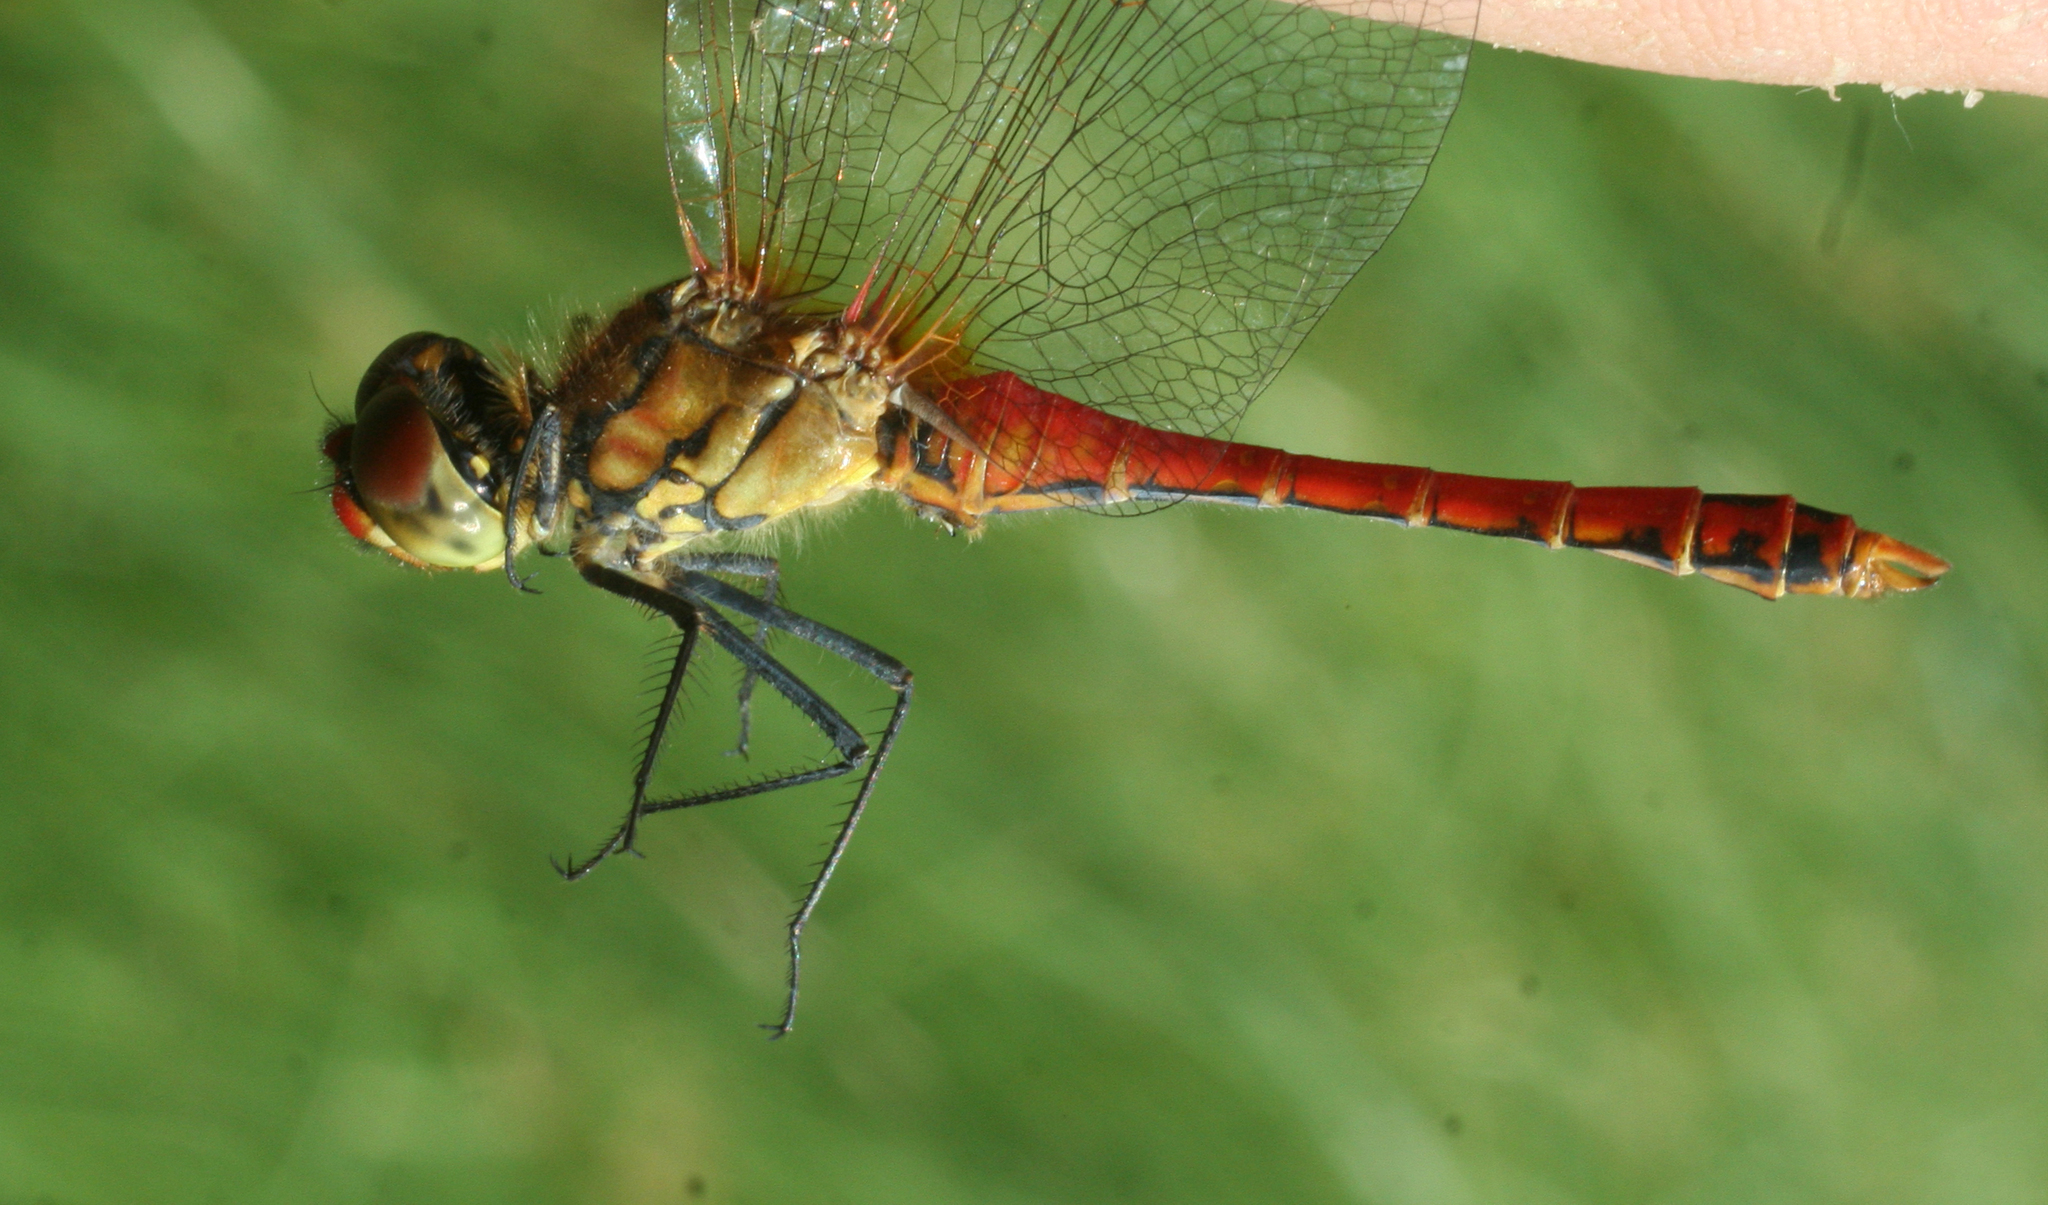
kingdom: Animalia
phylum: Arthropoda
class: Insecta
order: Odonata
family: Libellulidae
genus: Sympetrum
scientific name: Sympetrum sanguineum
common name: Ruddy darter
